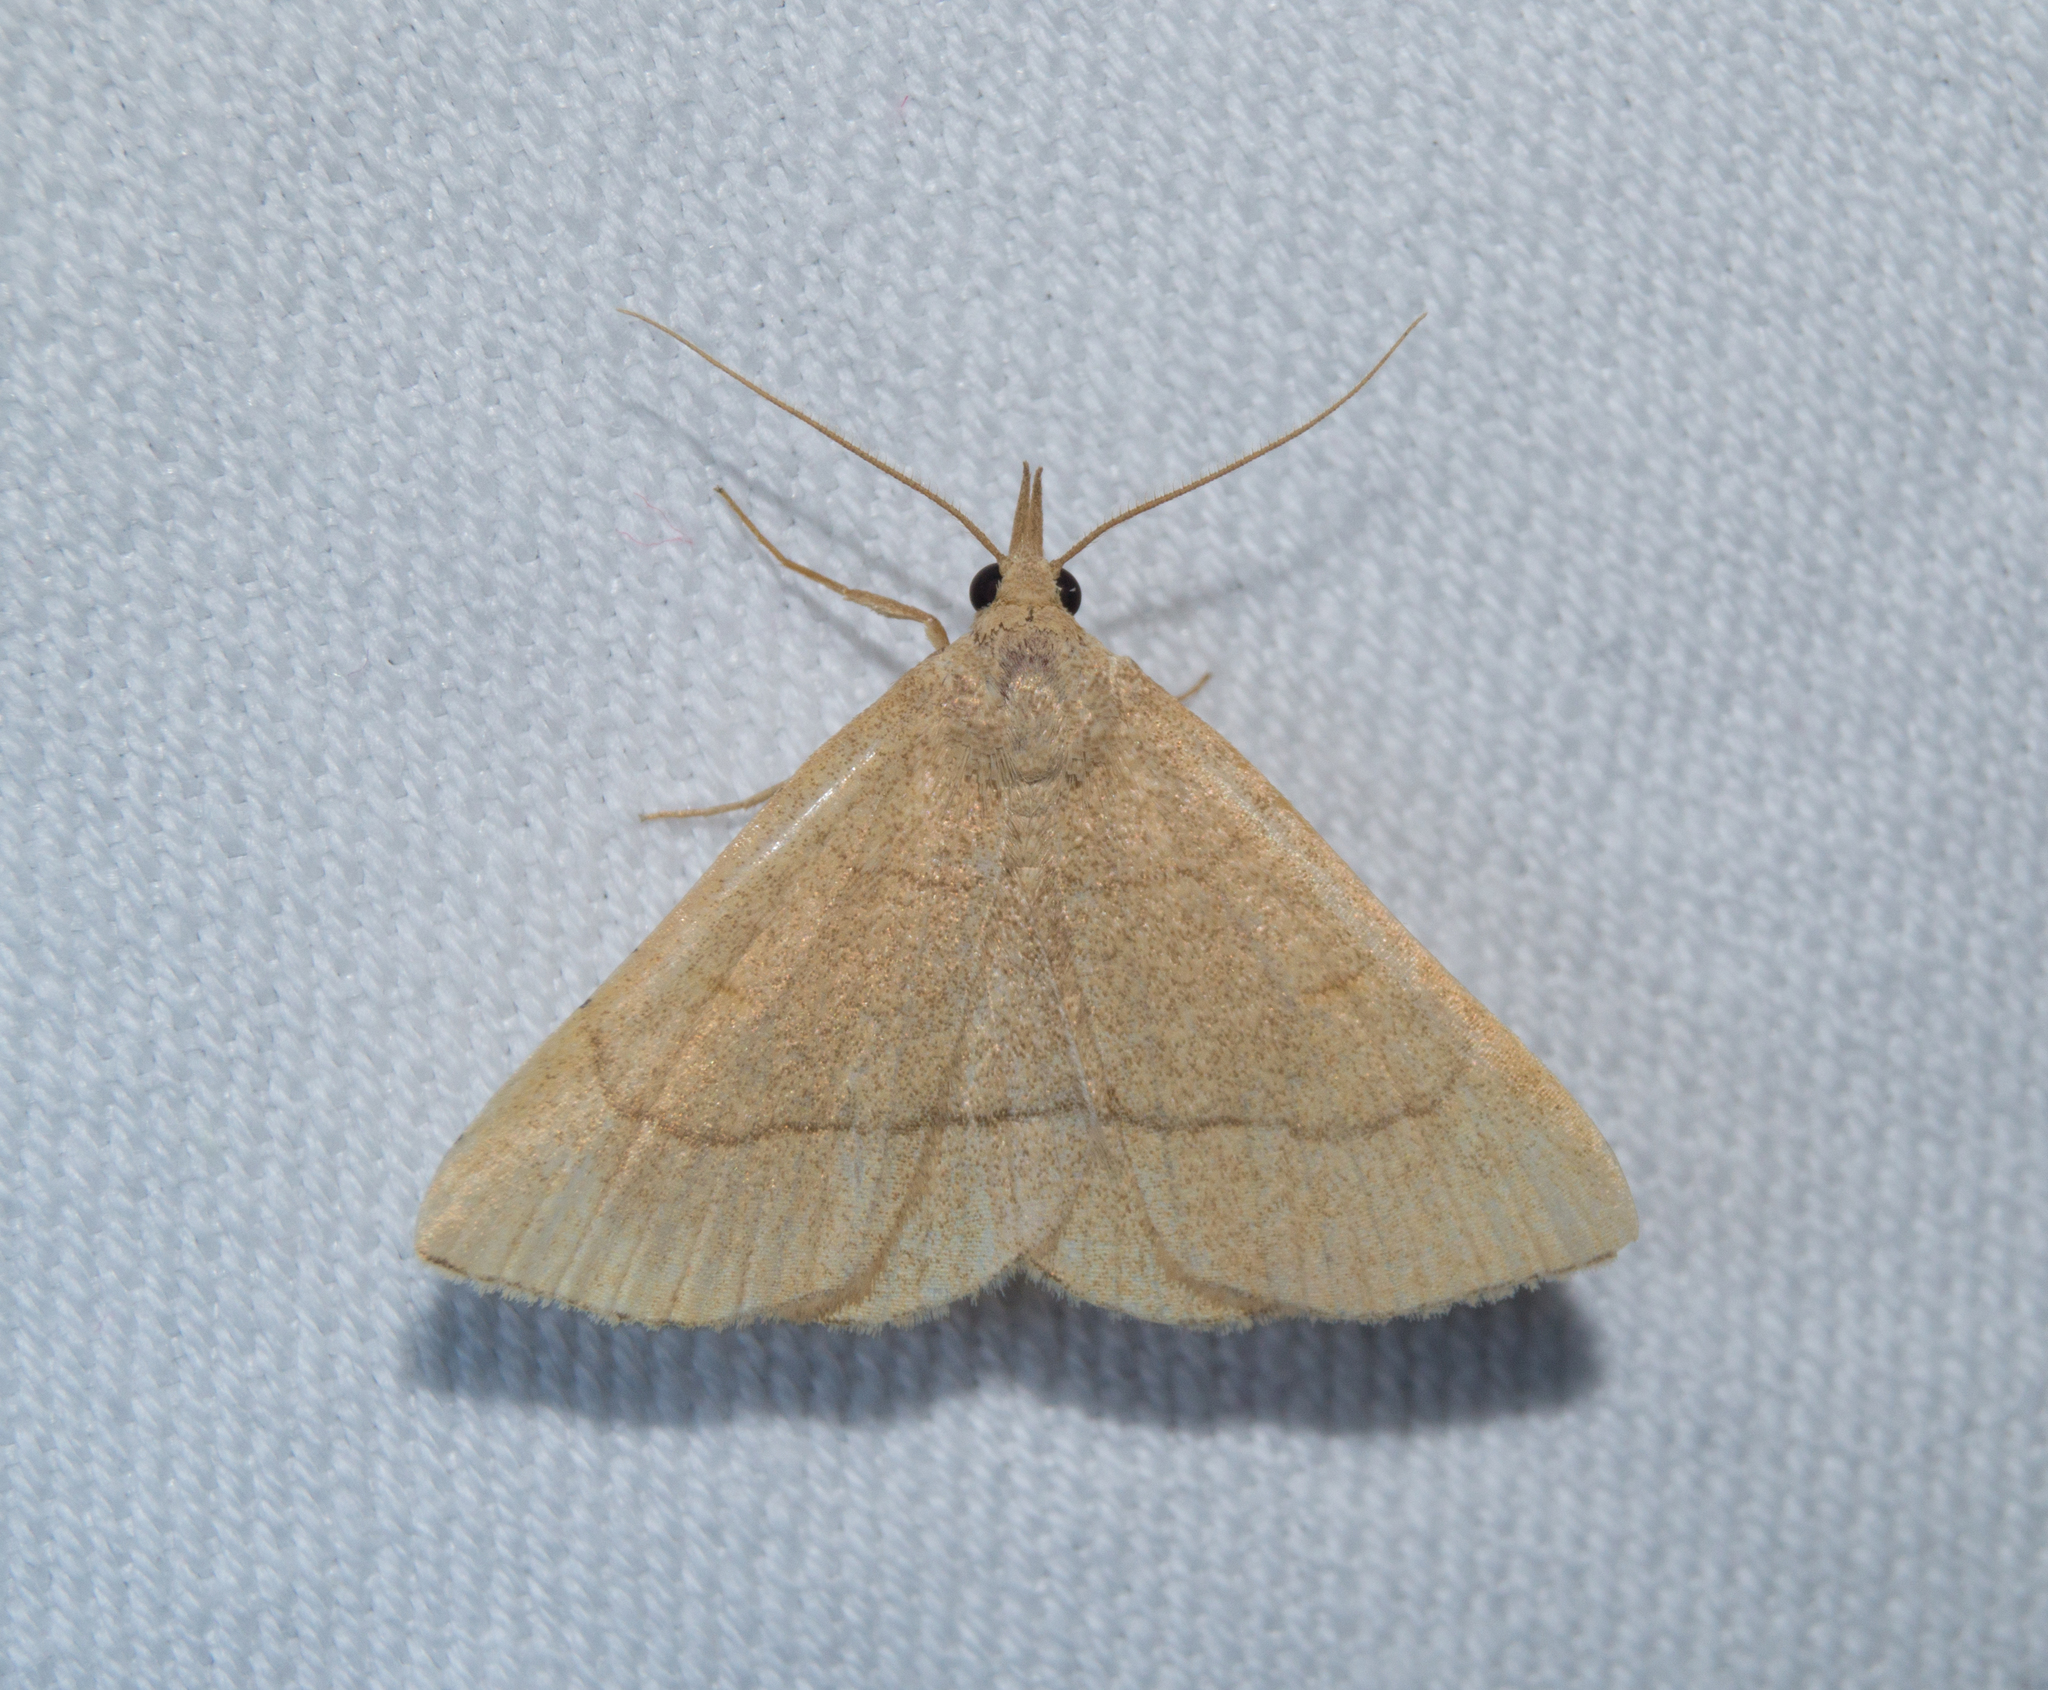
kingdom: Animalia
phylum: Arthropoda
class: Insecta
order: Lepidoptera
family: Erebidae
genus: Paracolax
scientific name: Paracolax tristalis
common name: Clay fan-foot
